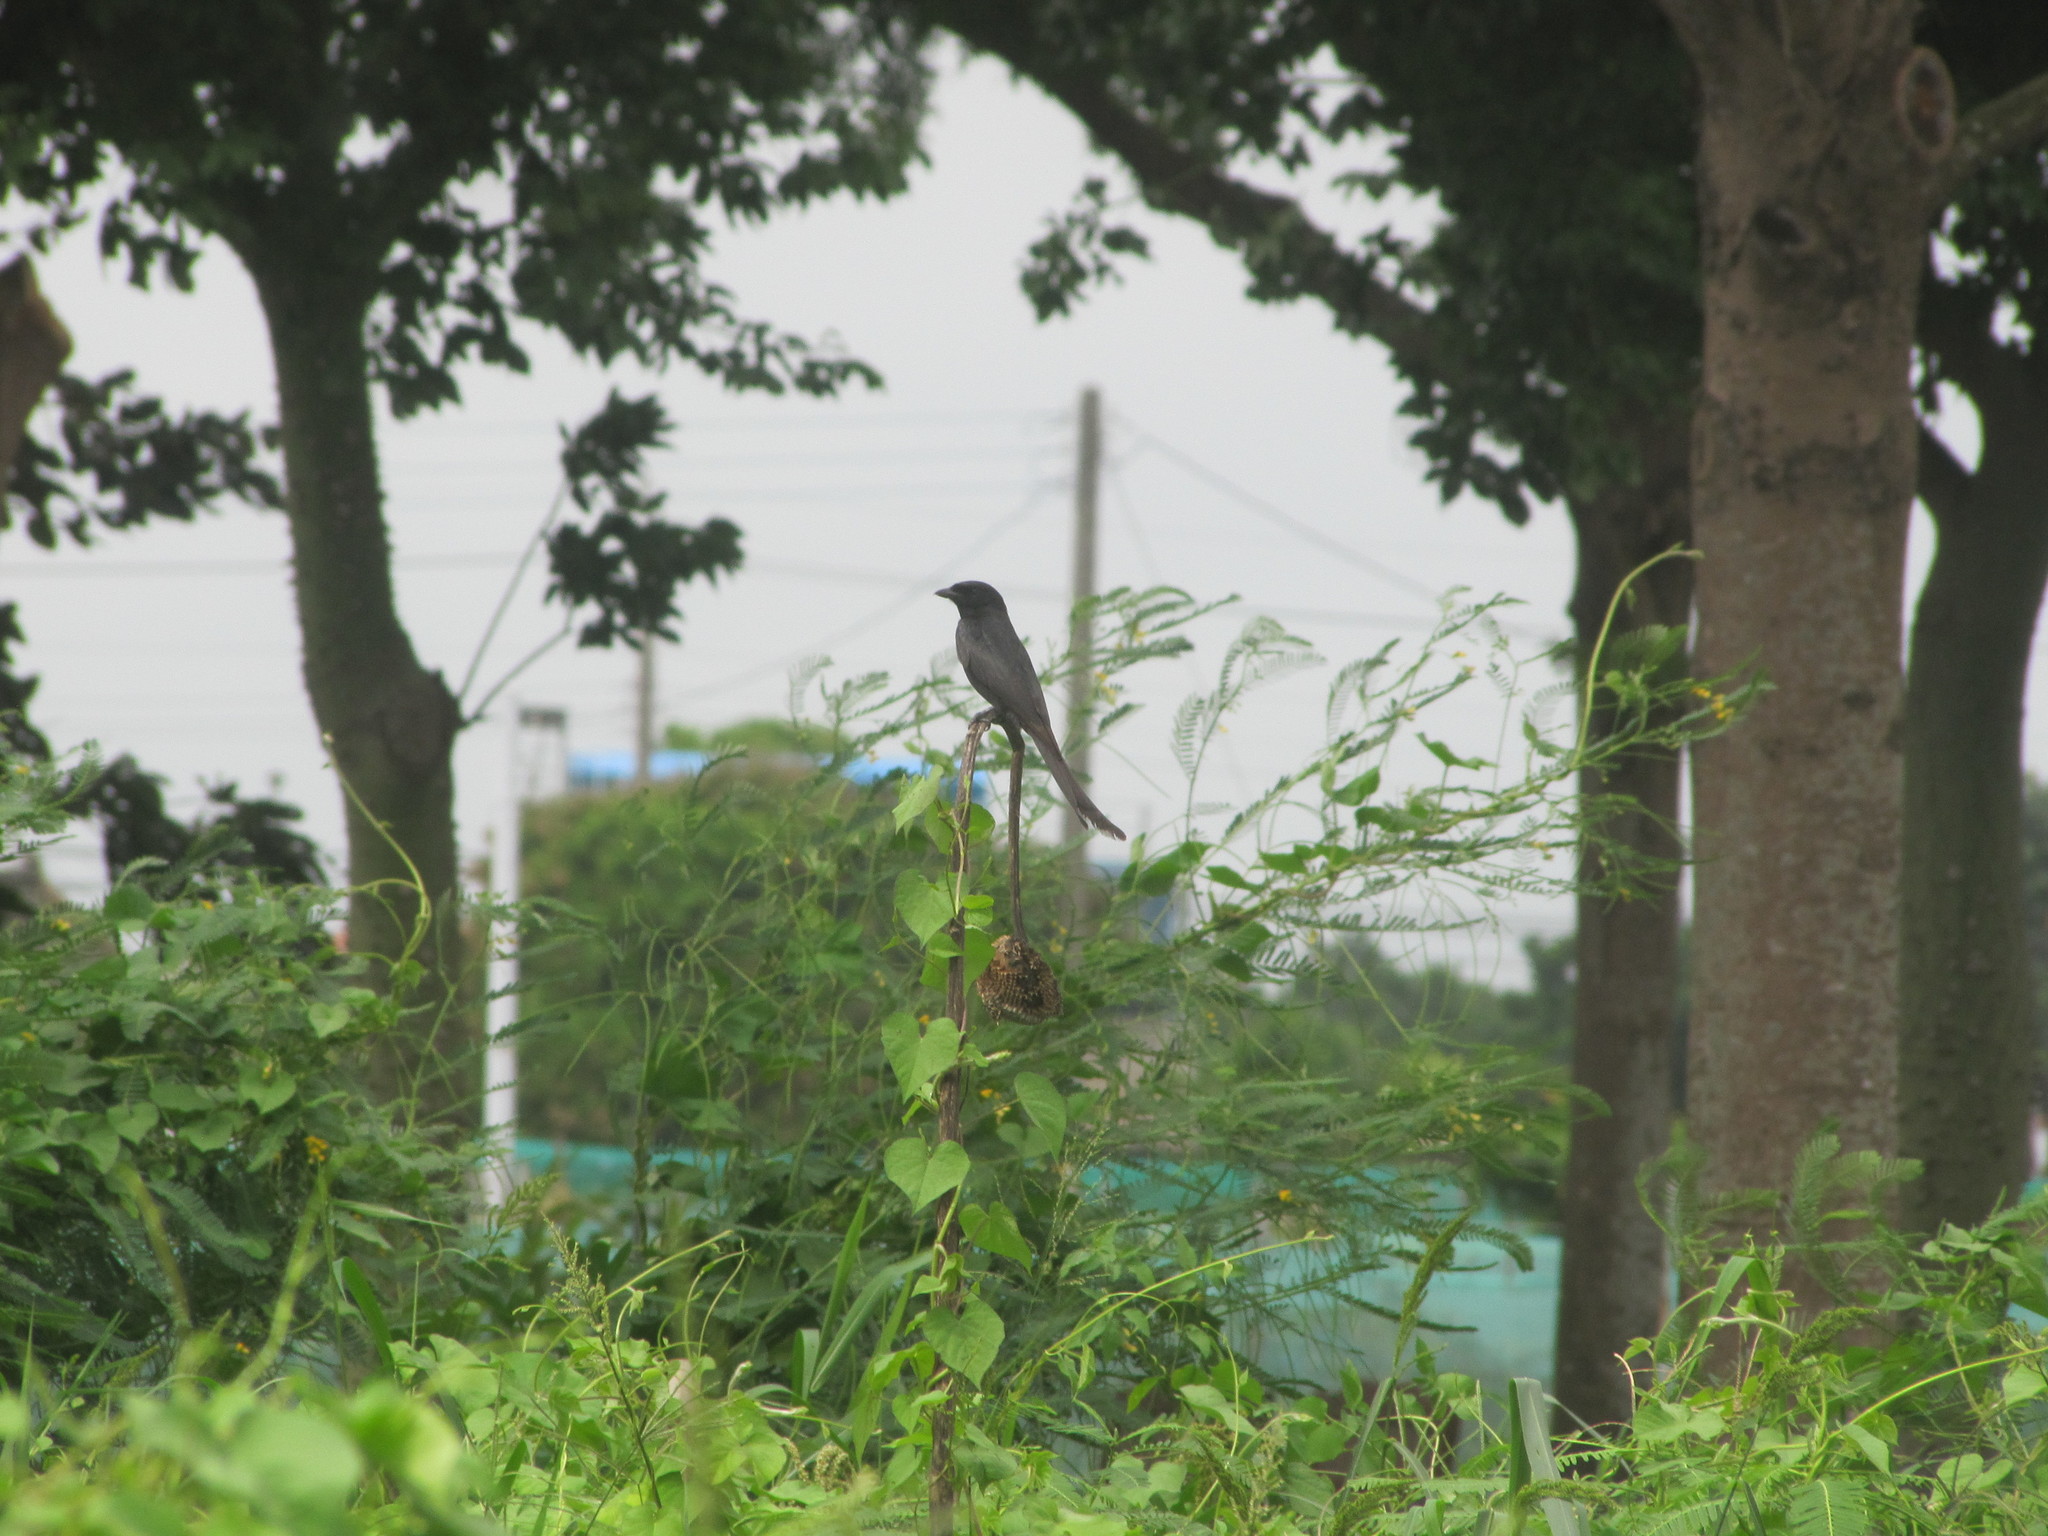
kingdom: Animalia
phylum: Chordata
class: Aves
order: Passeriformes
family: Dicruridae
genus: Dicrurus
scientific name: Dicrurus macrocercus
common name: Black drongo
